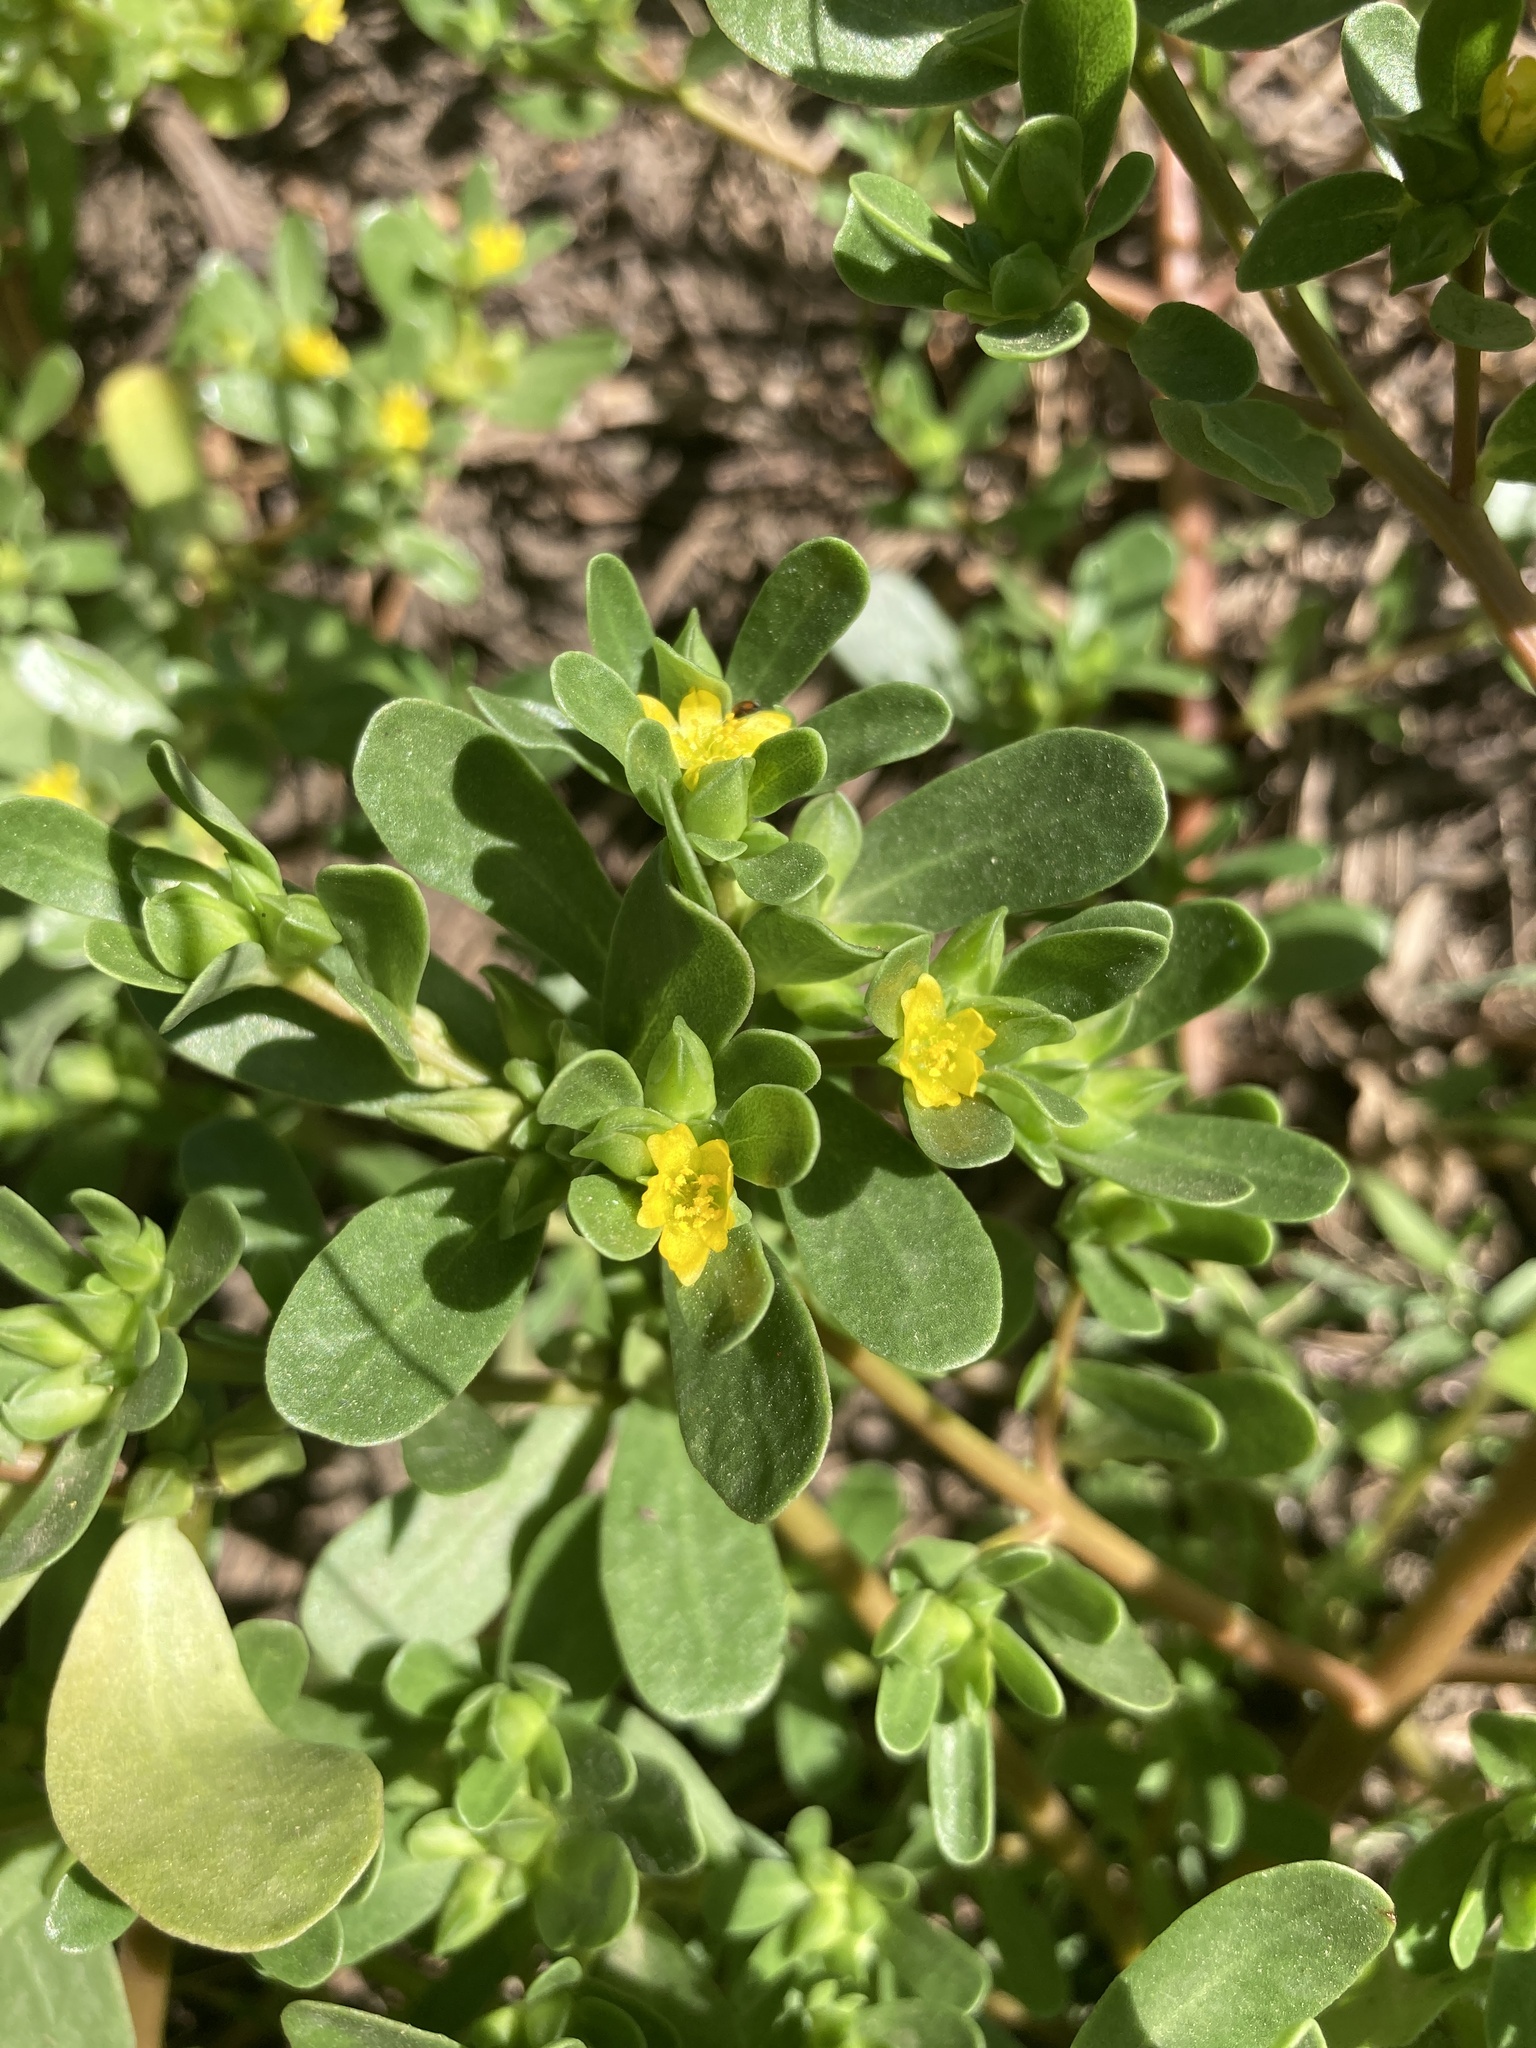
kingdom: Plantae
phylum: Tracheophyta
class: Magnoliopsida
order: Caryophyllales
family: Portulacaceae
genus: Portulaca
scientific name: Portulaca oleracea
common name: Common purslane
